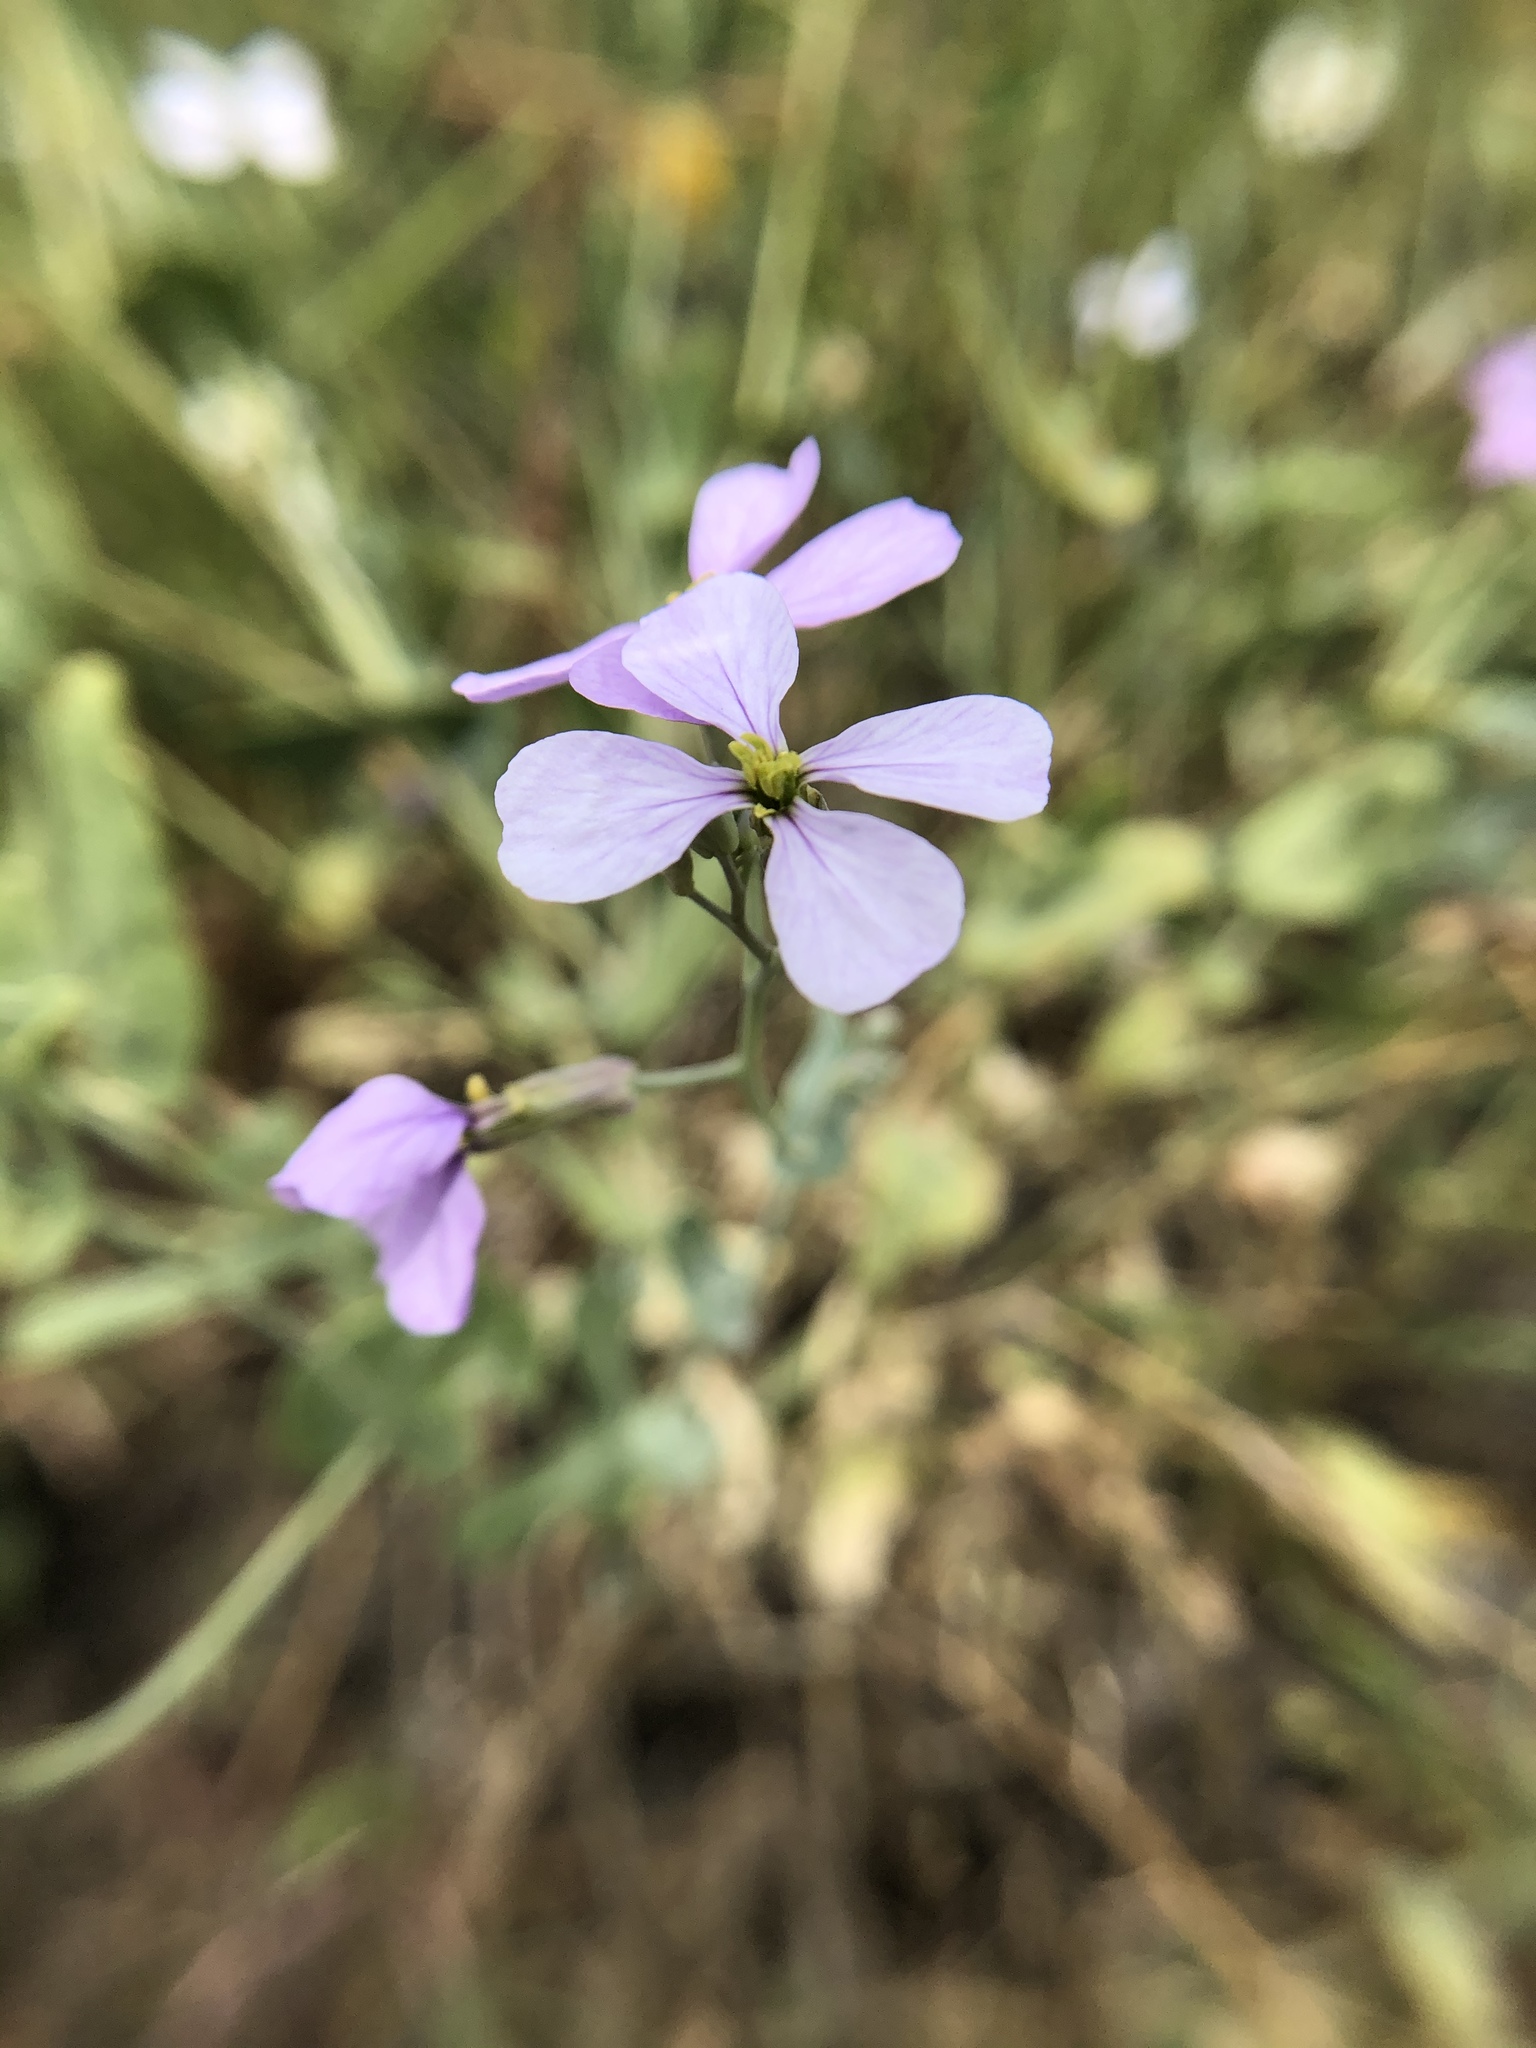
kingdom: Plantae
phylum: Tracheophyta
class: Magnoliopsida
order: Brassicales
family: Brassicaceae
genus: Moricandia
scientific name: Moricandia arvensis
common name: Purple mistress
